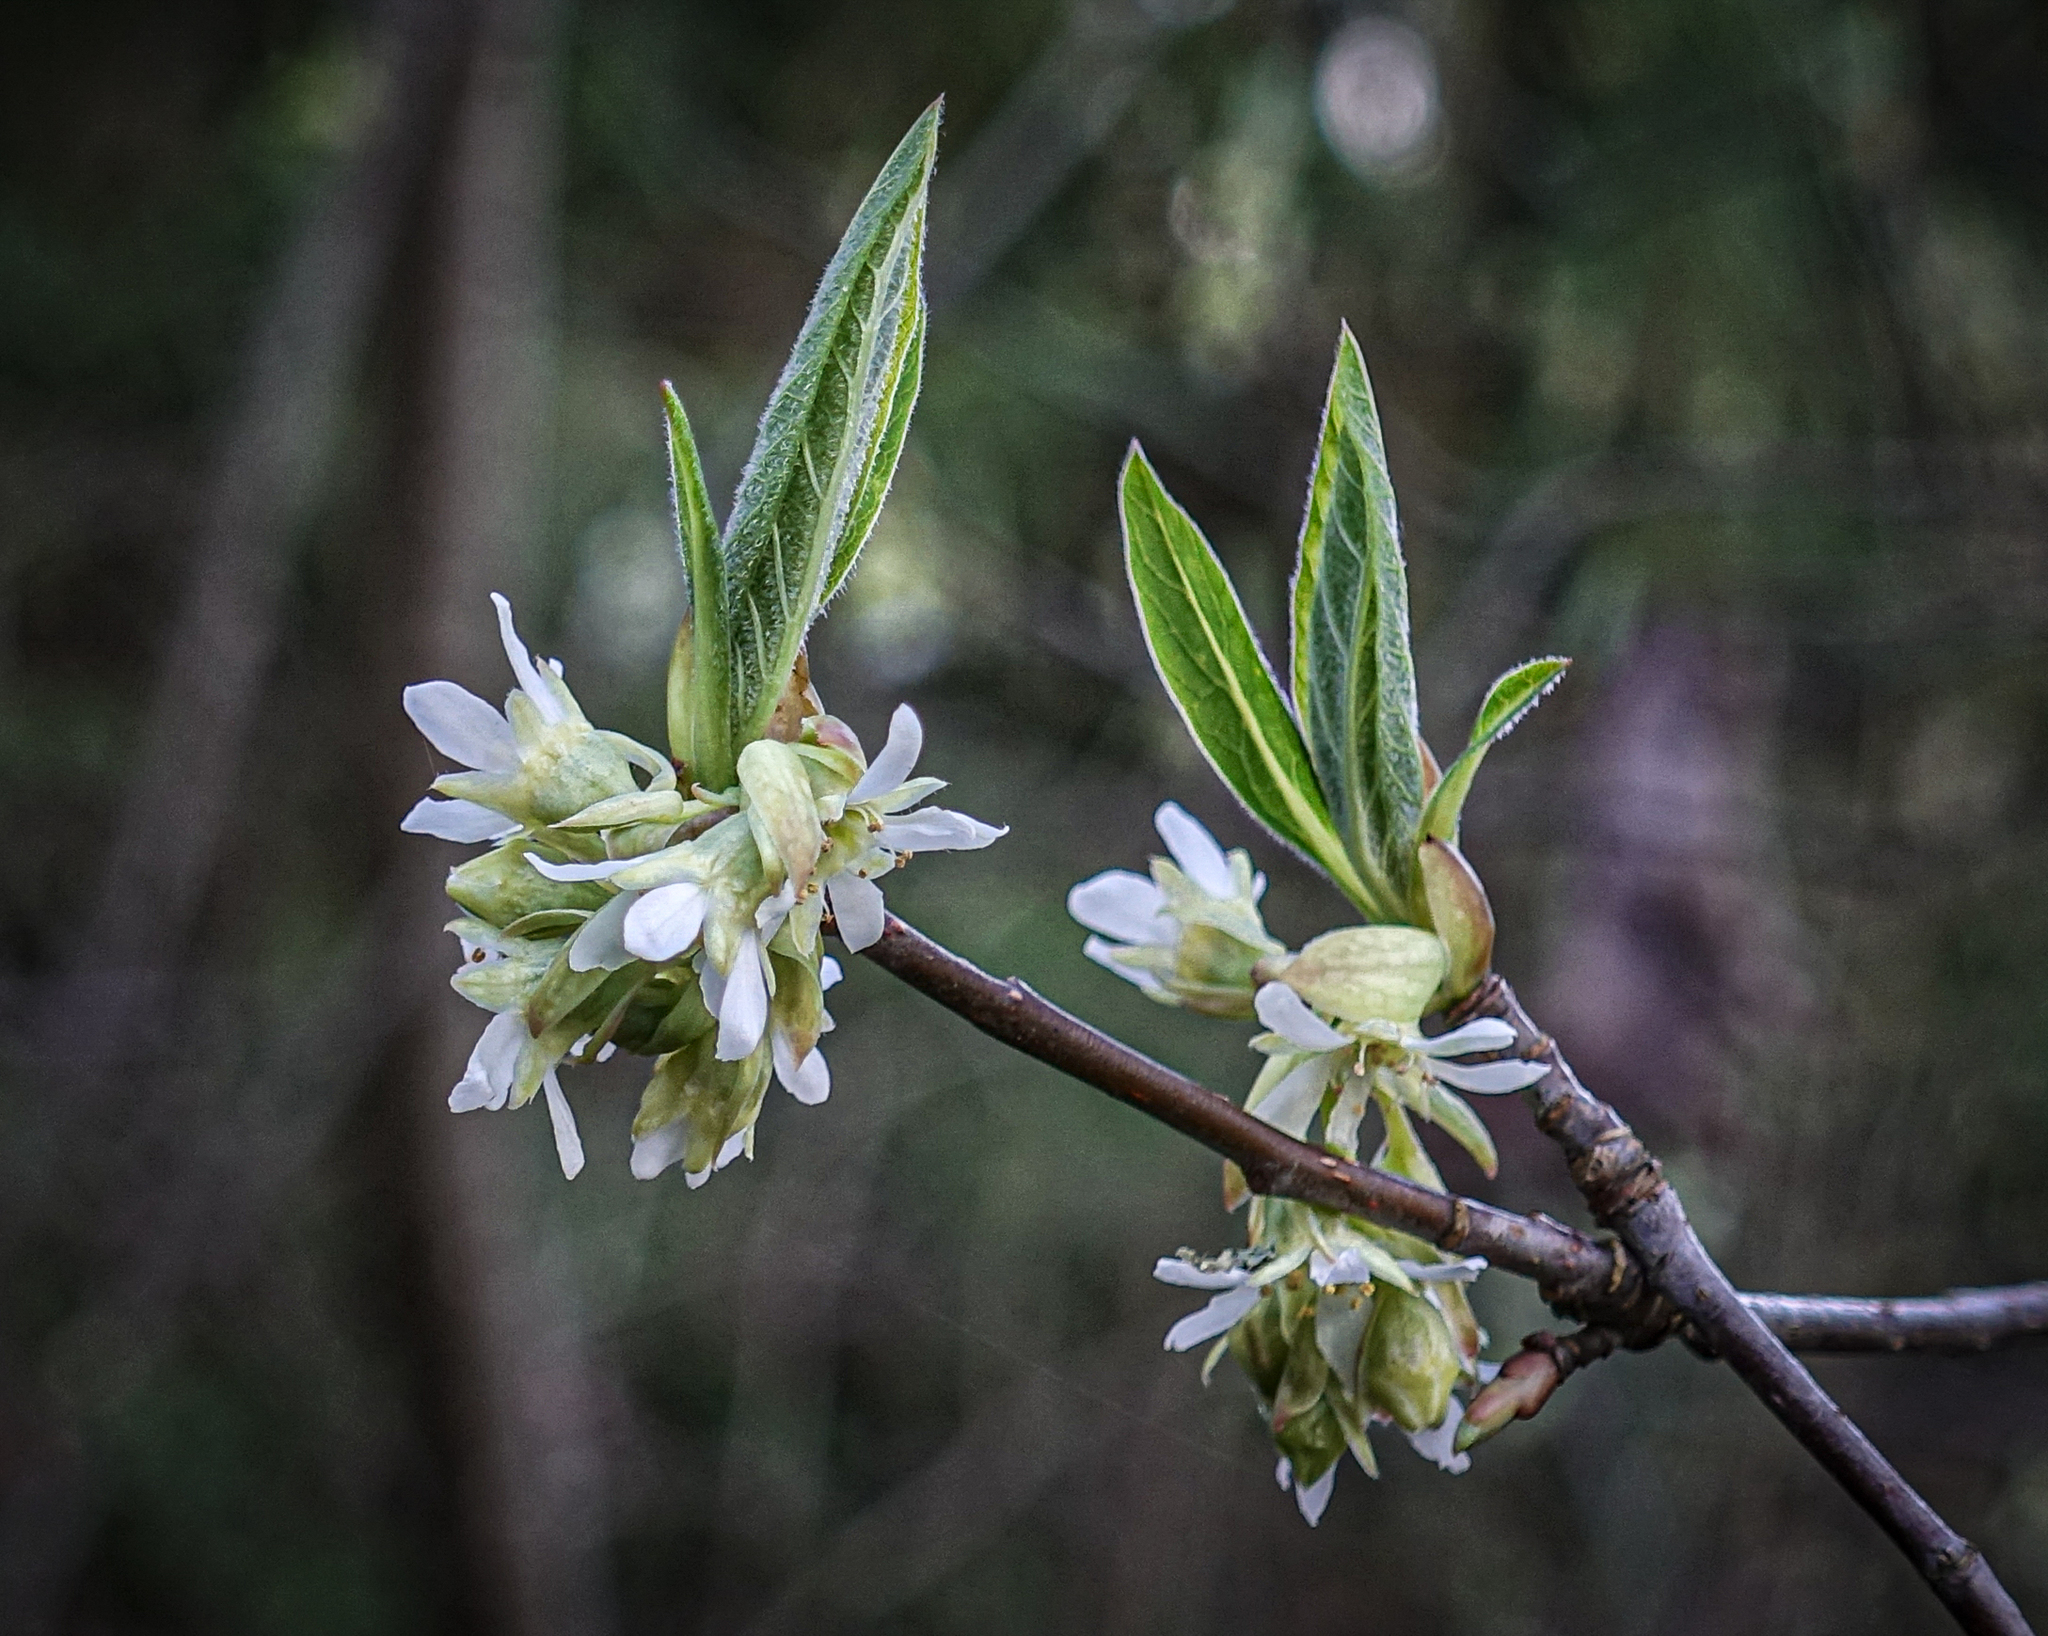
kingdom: Plantae
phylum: Tracheophyta
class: Magnoliopsida
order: Rosales
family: Rosaceae
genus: Oemleria
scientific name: Oemleria cerasiformis
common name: Osoberry
